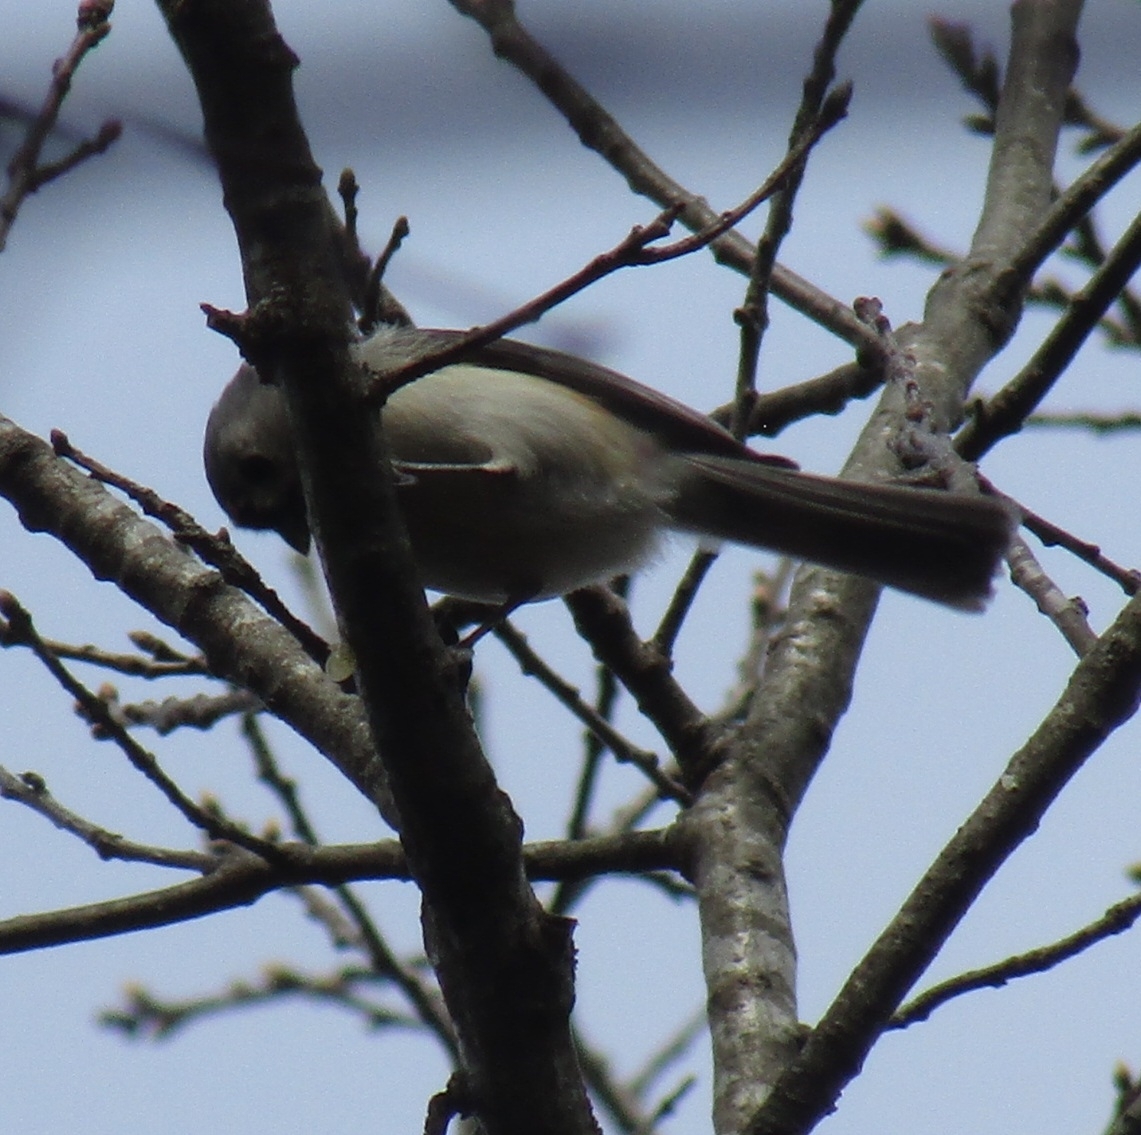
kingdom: Animalia
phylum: Chordata
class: Aves
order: Passeriformes
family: Paridae
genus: Baeolophus
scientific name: Baeolophus bicolor
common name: Tufted titmouse
